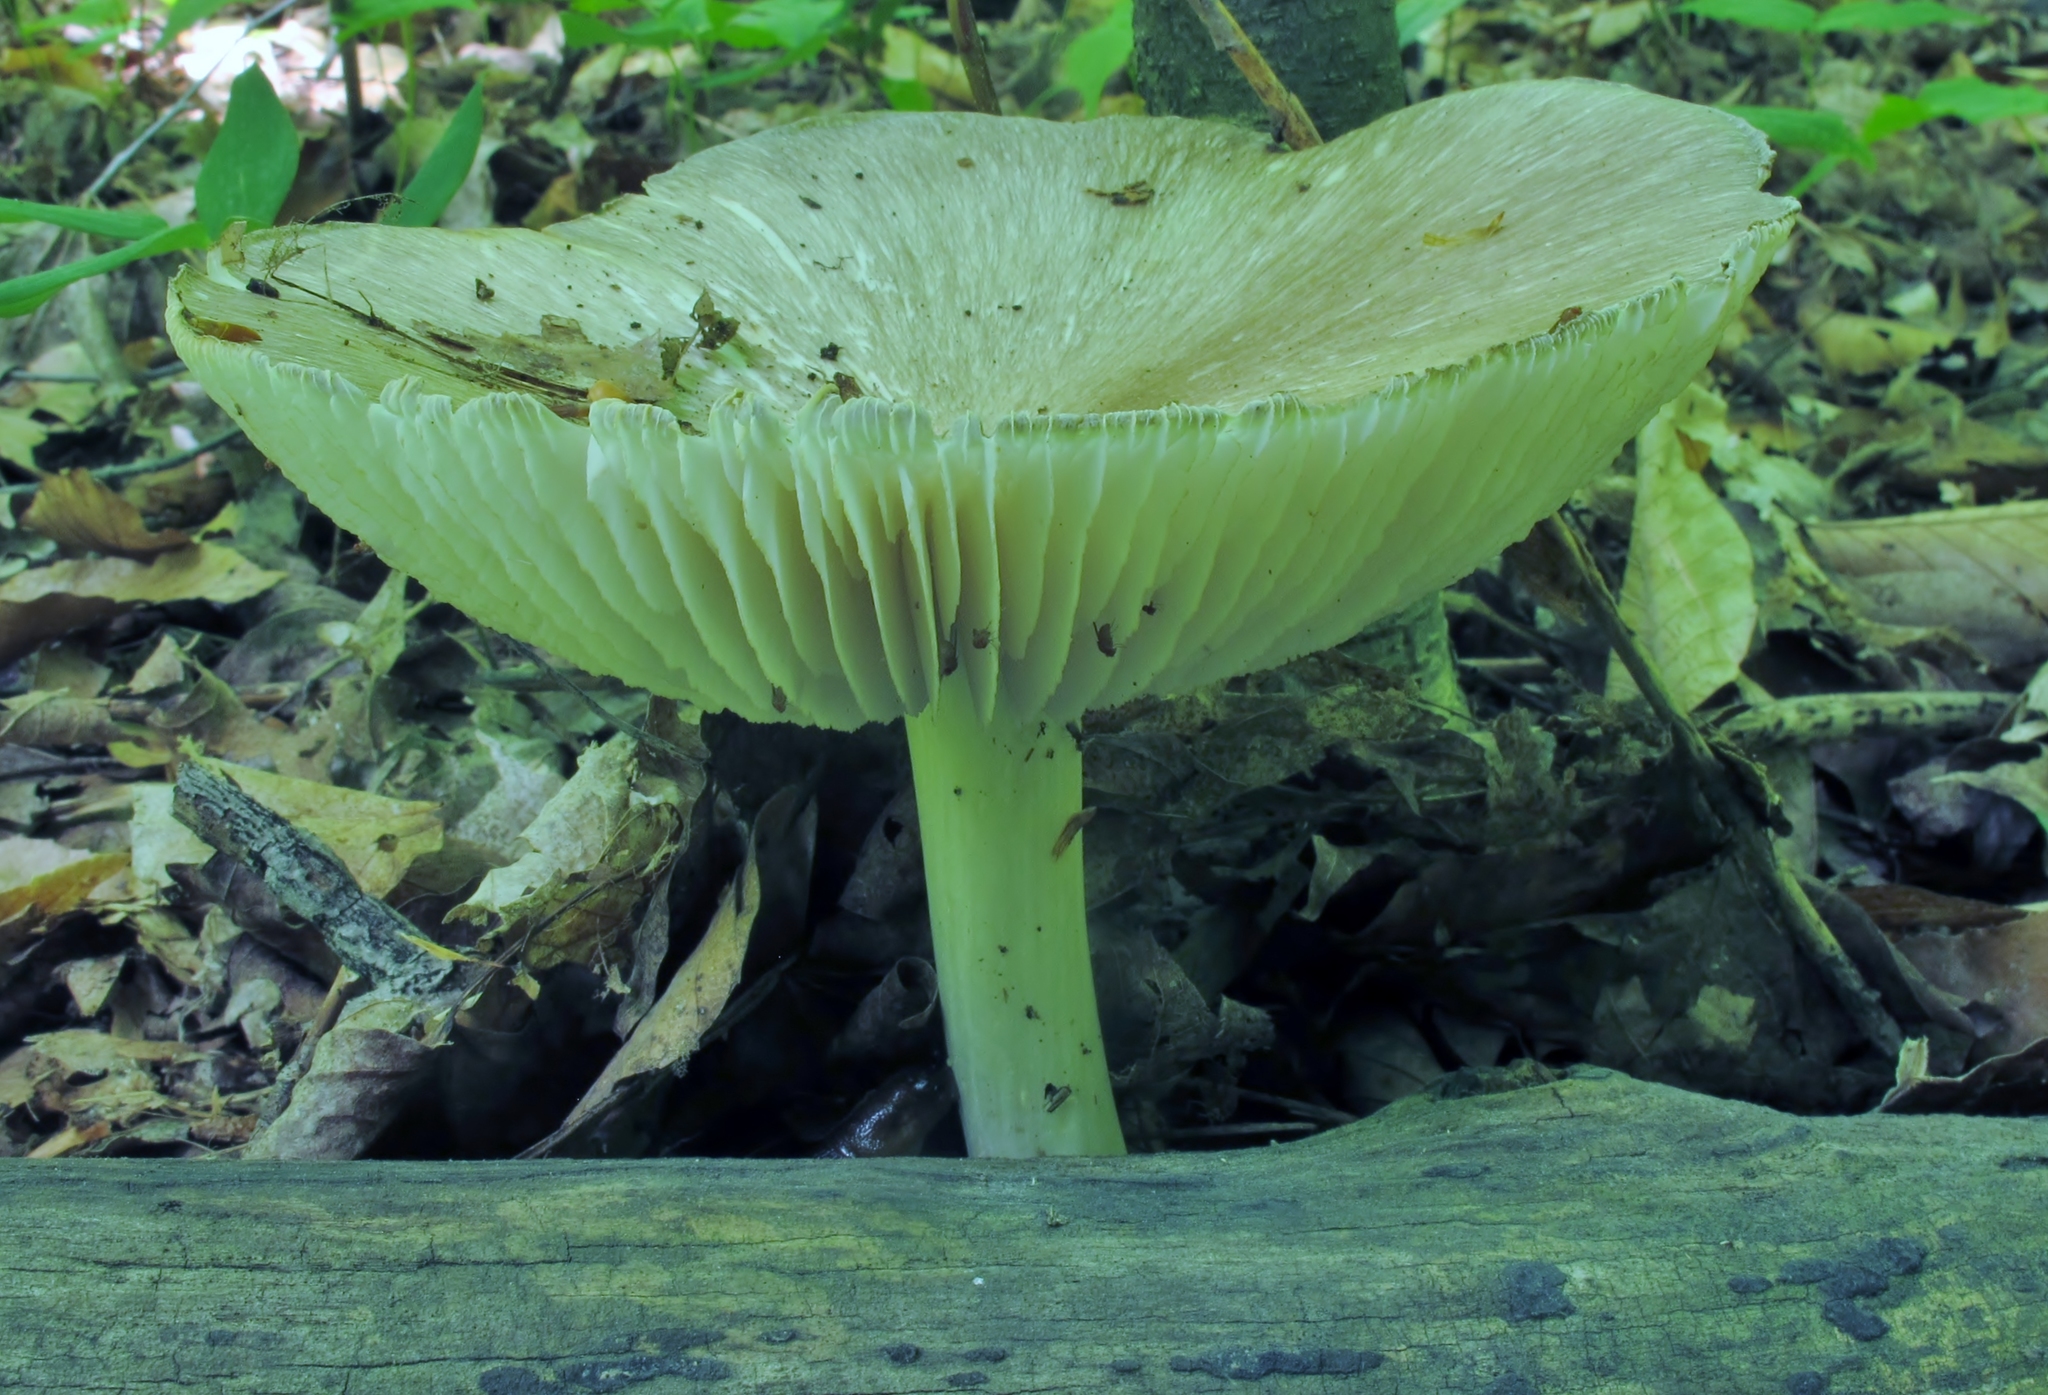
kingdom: Fungi
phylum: Basidiomycota
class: Agaricomycetes
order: Agaricales
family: Tricholomataceae
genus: Megacollybia
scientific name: Megacollybia rodmanii
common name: Eastern american platterful mushroom
